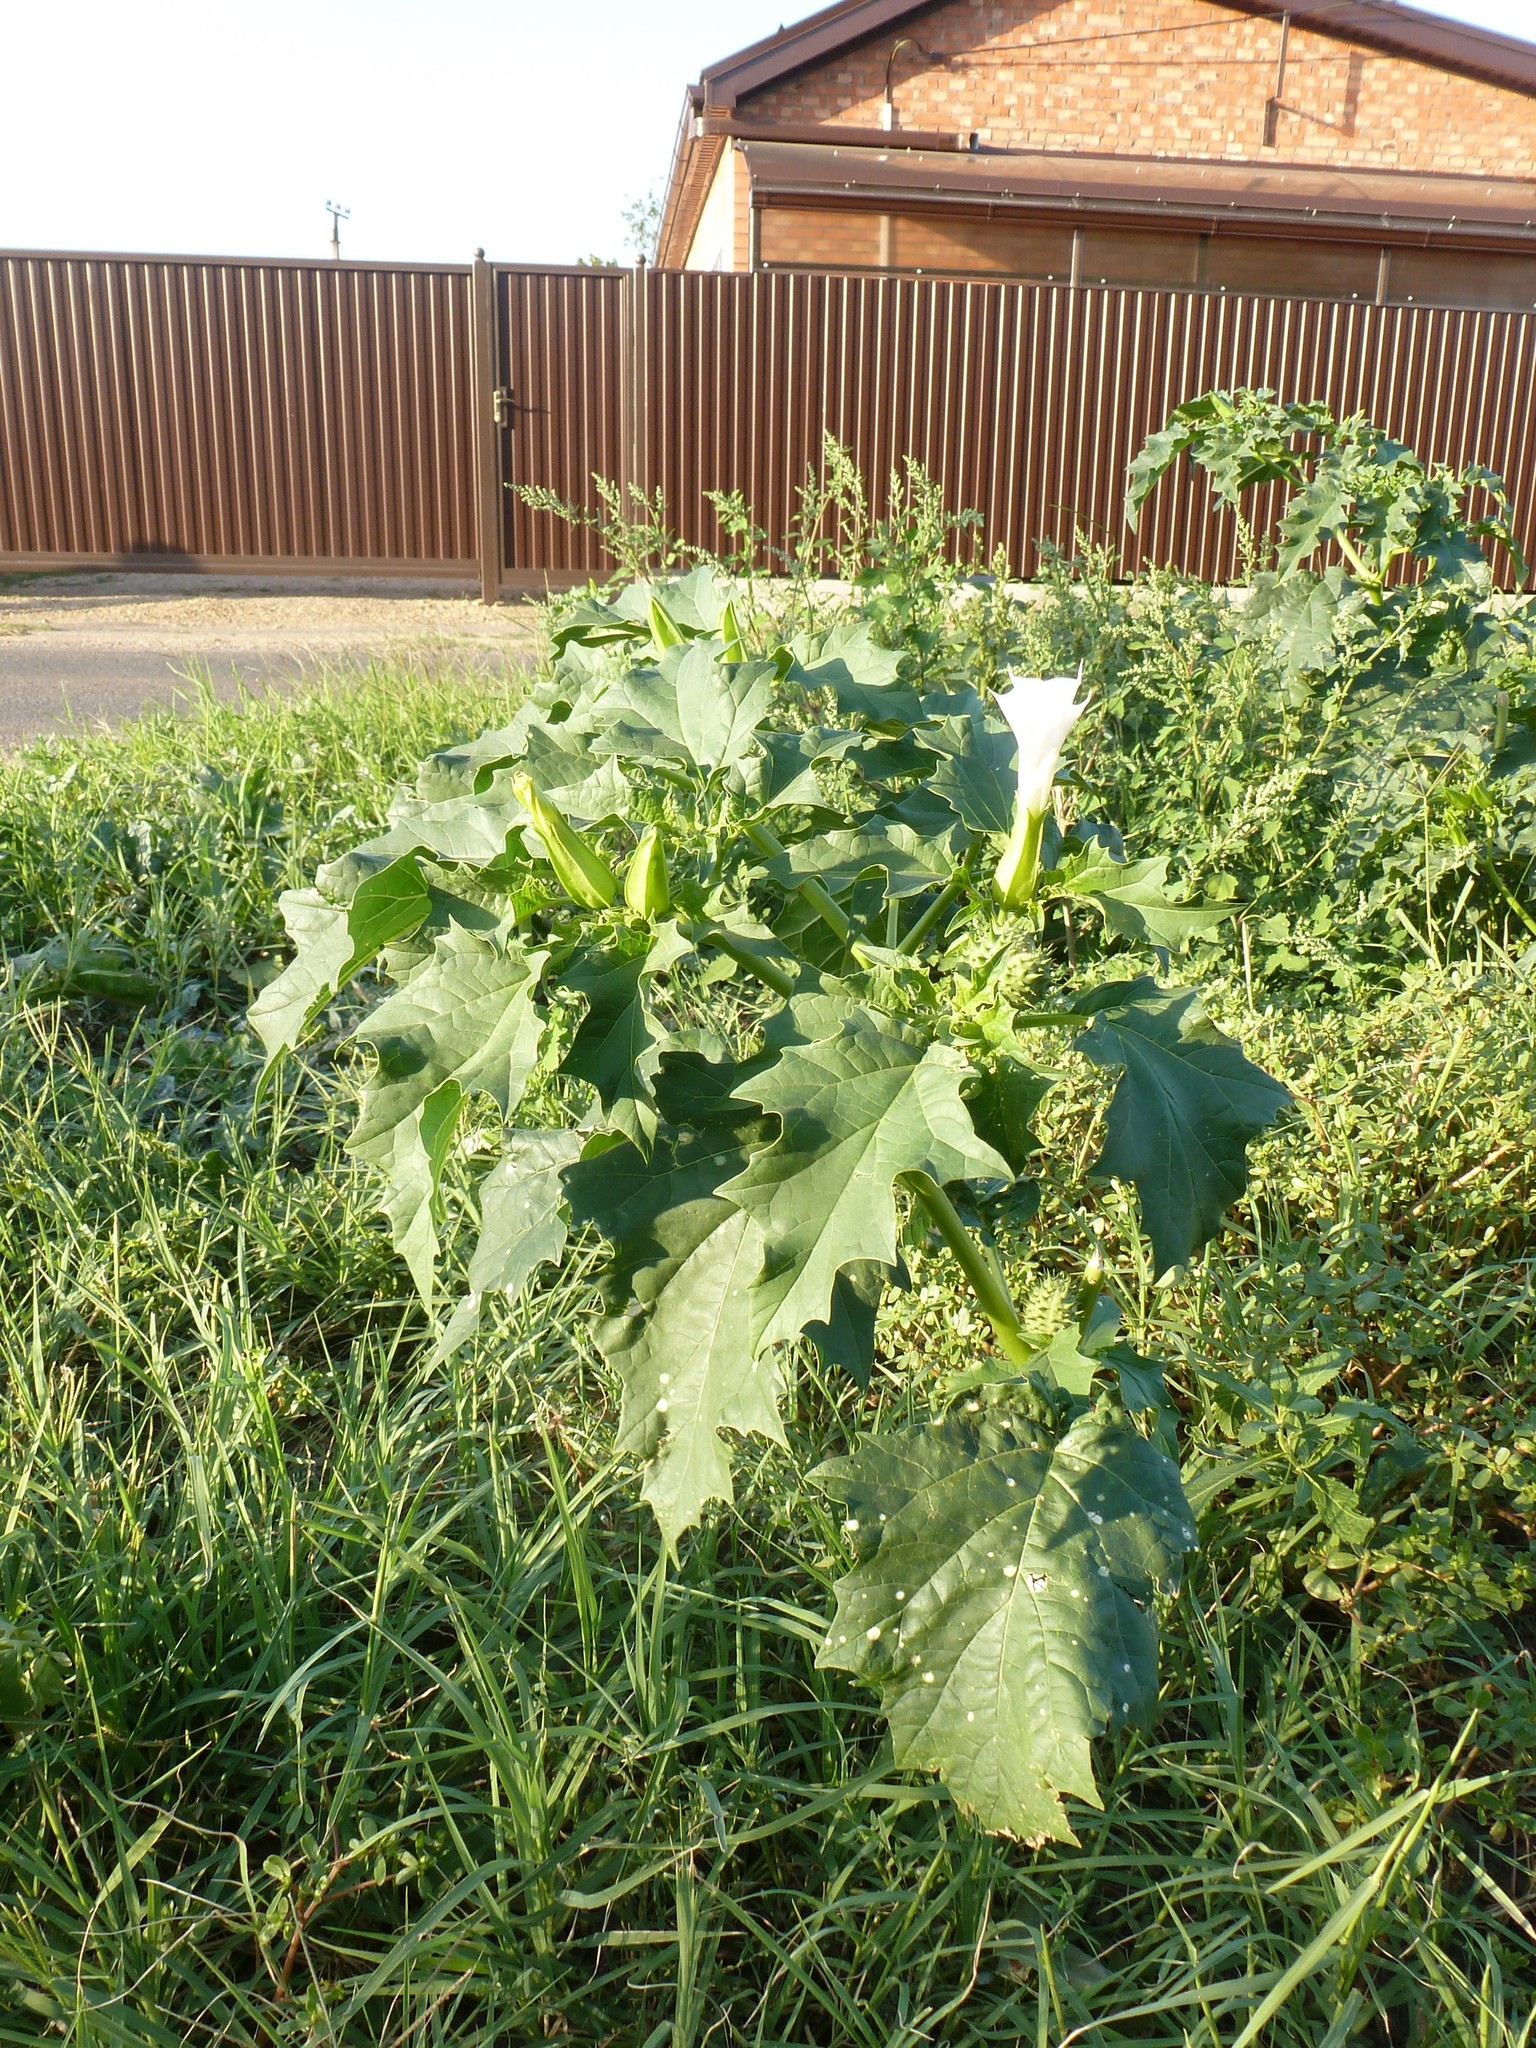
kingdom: Plantae
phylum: Tracheophyta
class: Magnoliopsida
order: Solanales
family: Solanaceae
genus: Datura
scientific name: Datura stramonium
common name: Thorn-apple
